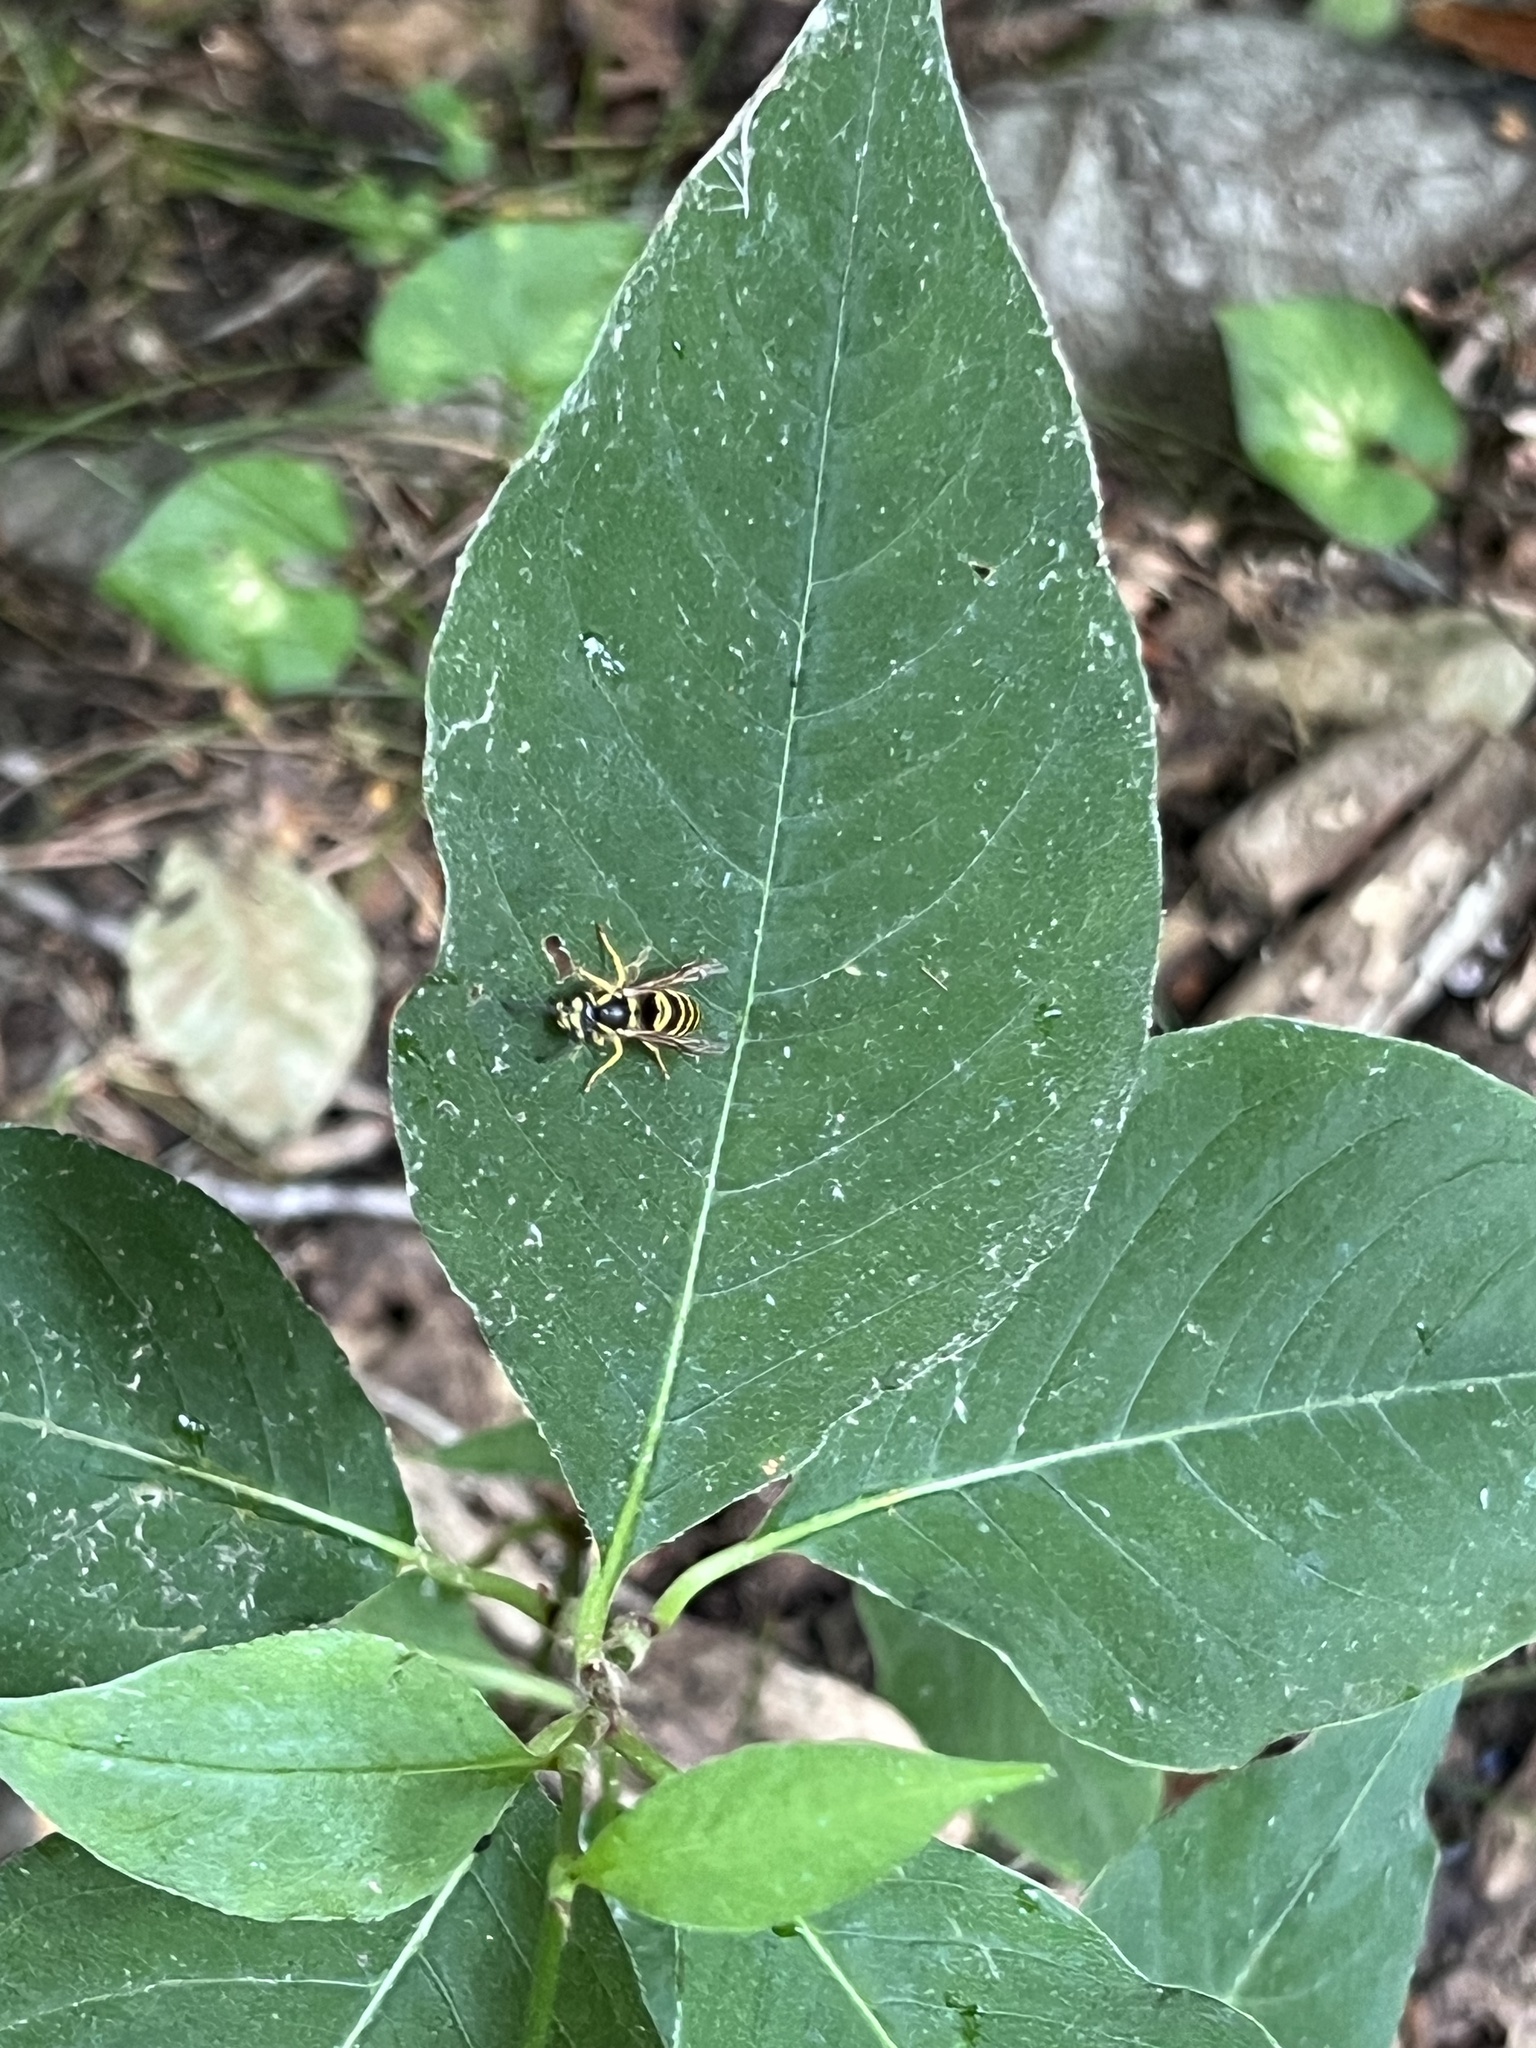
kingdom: Animalia
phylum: Arthropoda
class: Insecta
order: Hymenoptera
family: Vespidae
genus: Vespula
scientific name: Vespula maculifrons
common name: Eastern yellowjacket
